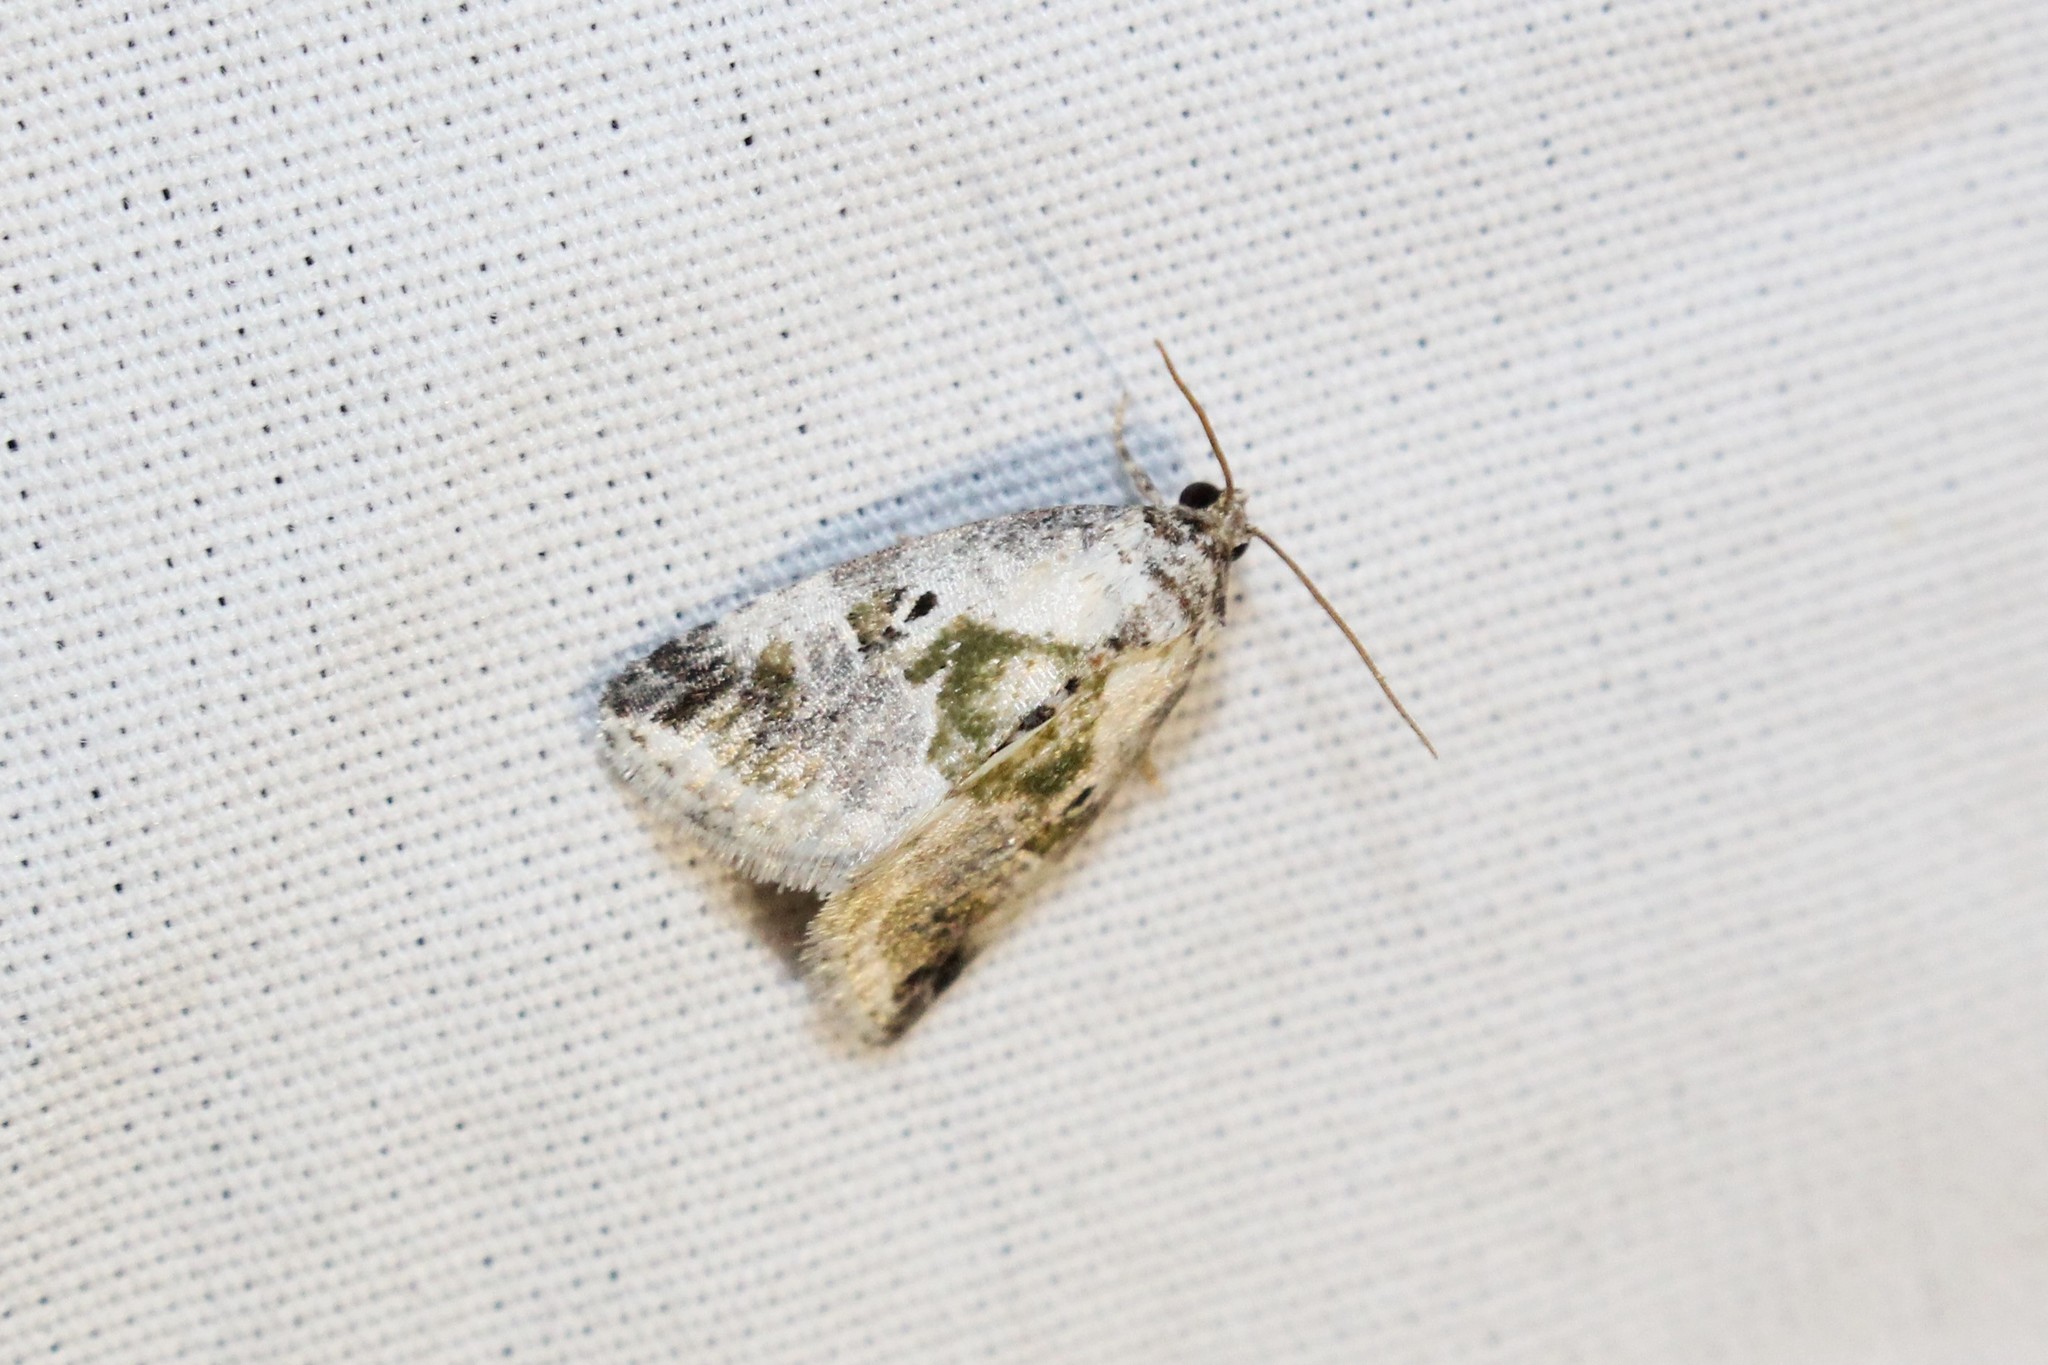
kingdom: Animalia
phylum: Arthropoda
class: Insecta
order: Lepidoptera
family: Noctuidae
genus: Maliattha
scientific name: Maliattha synochitis
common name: Black-dotted glyph
